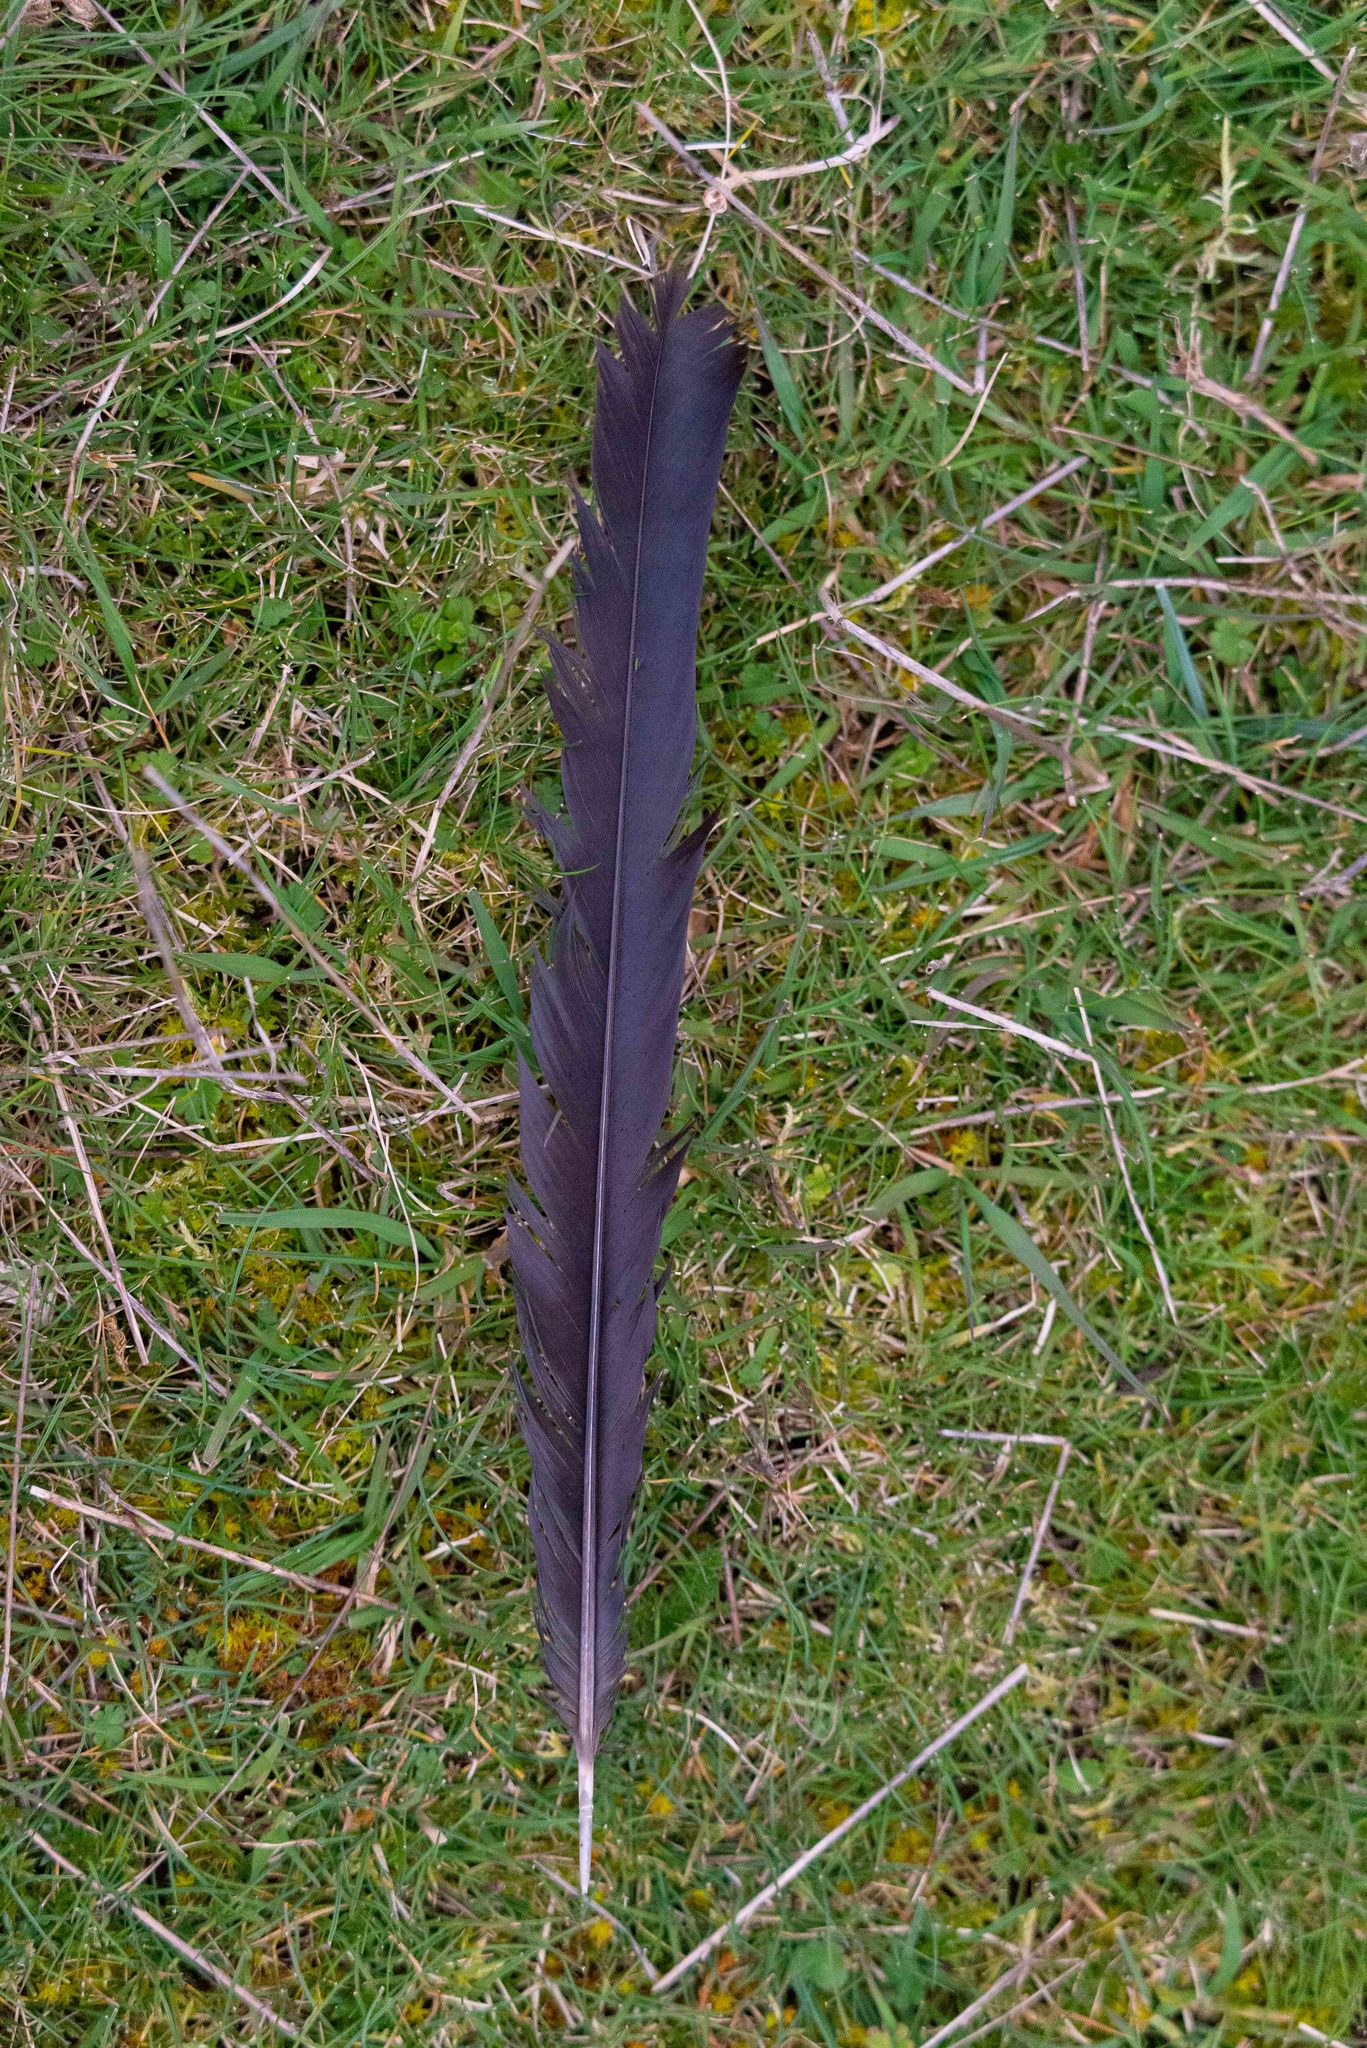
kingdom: Animalia
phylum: Chordata
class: Aves
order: Passeriformes
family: Corvidae
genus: Pica
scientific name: Pica pica
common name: Eurasian magpie
